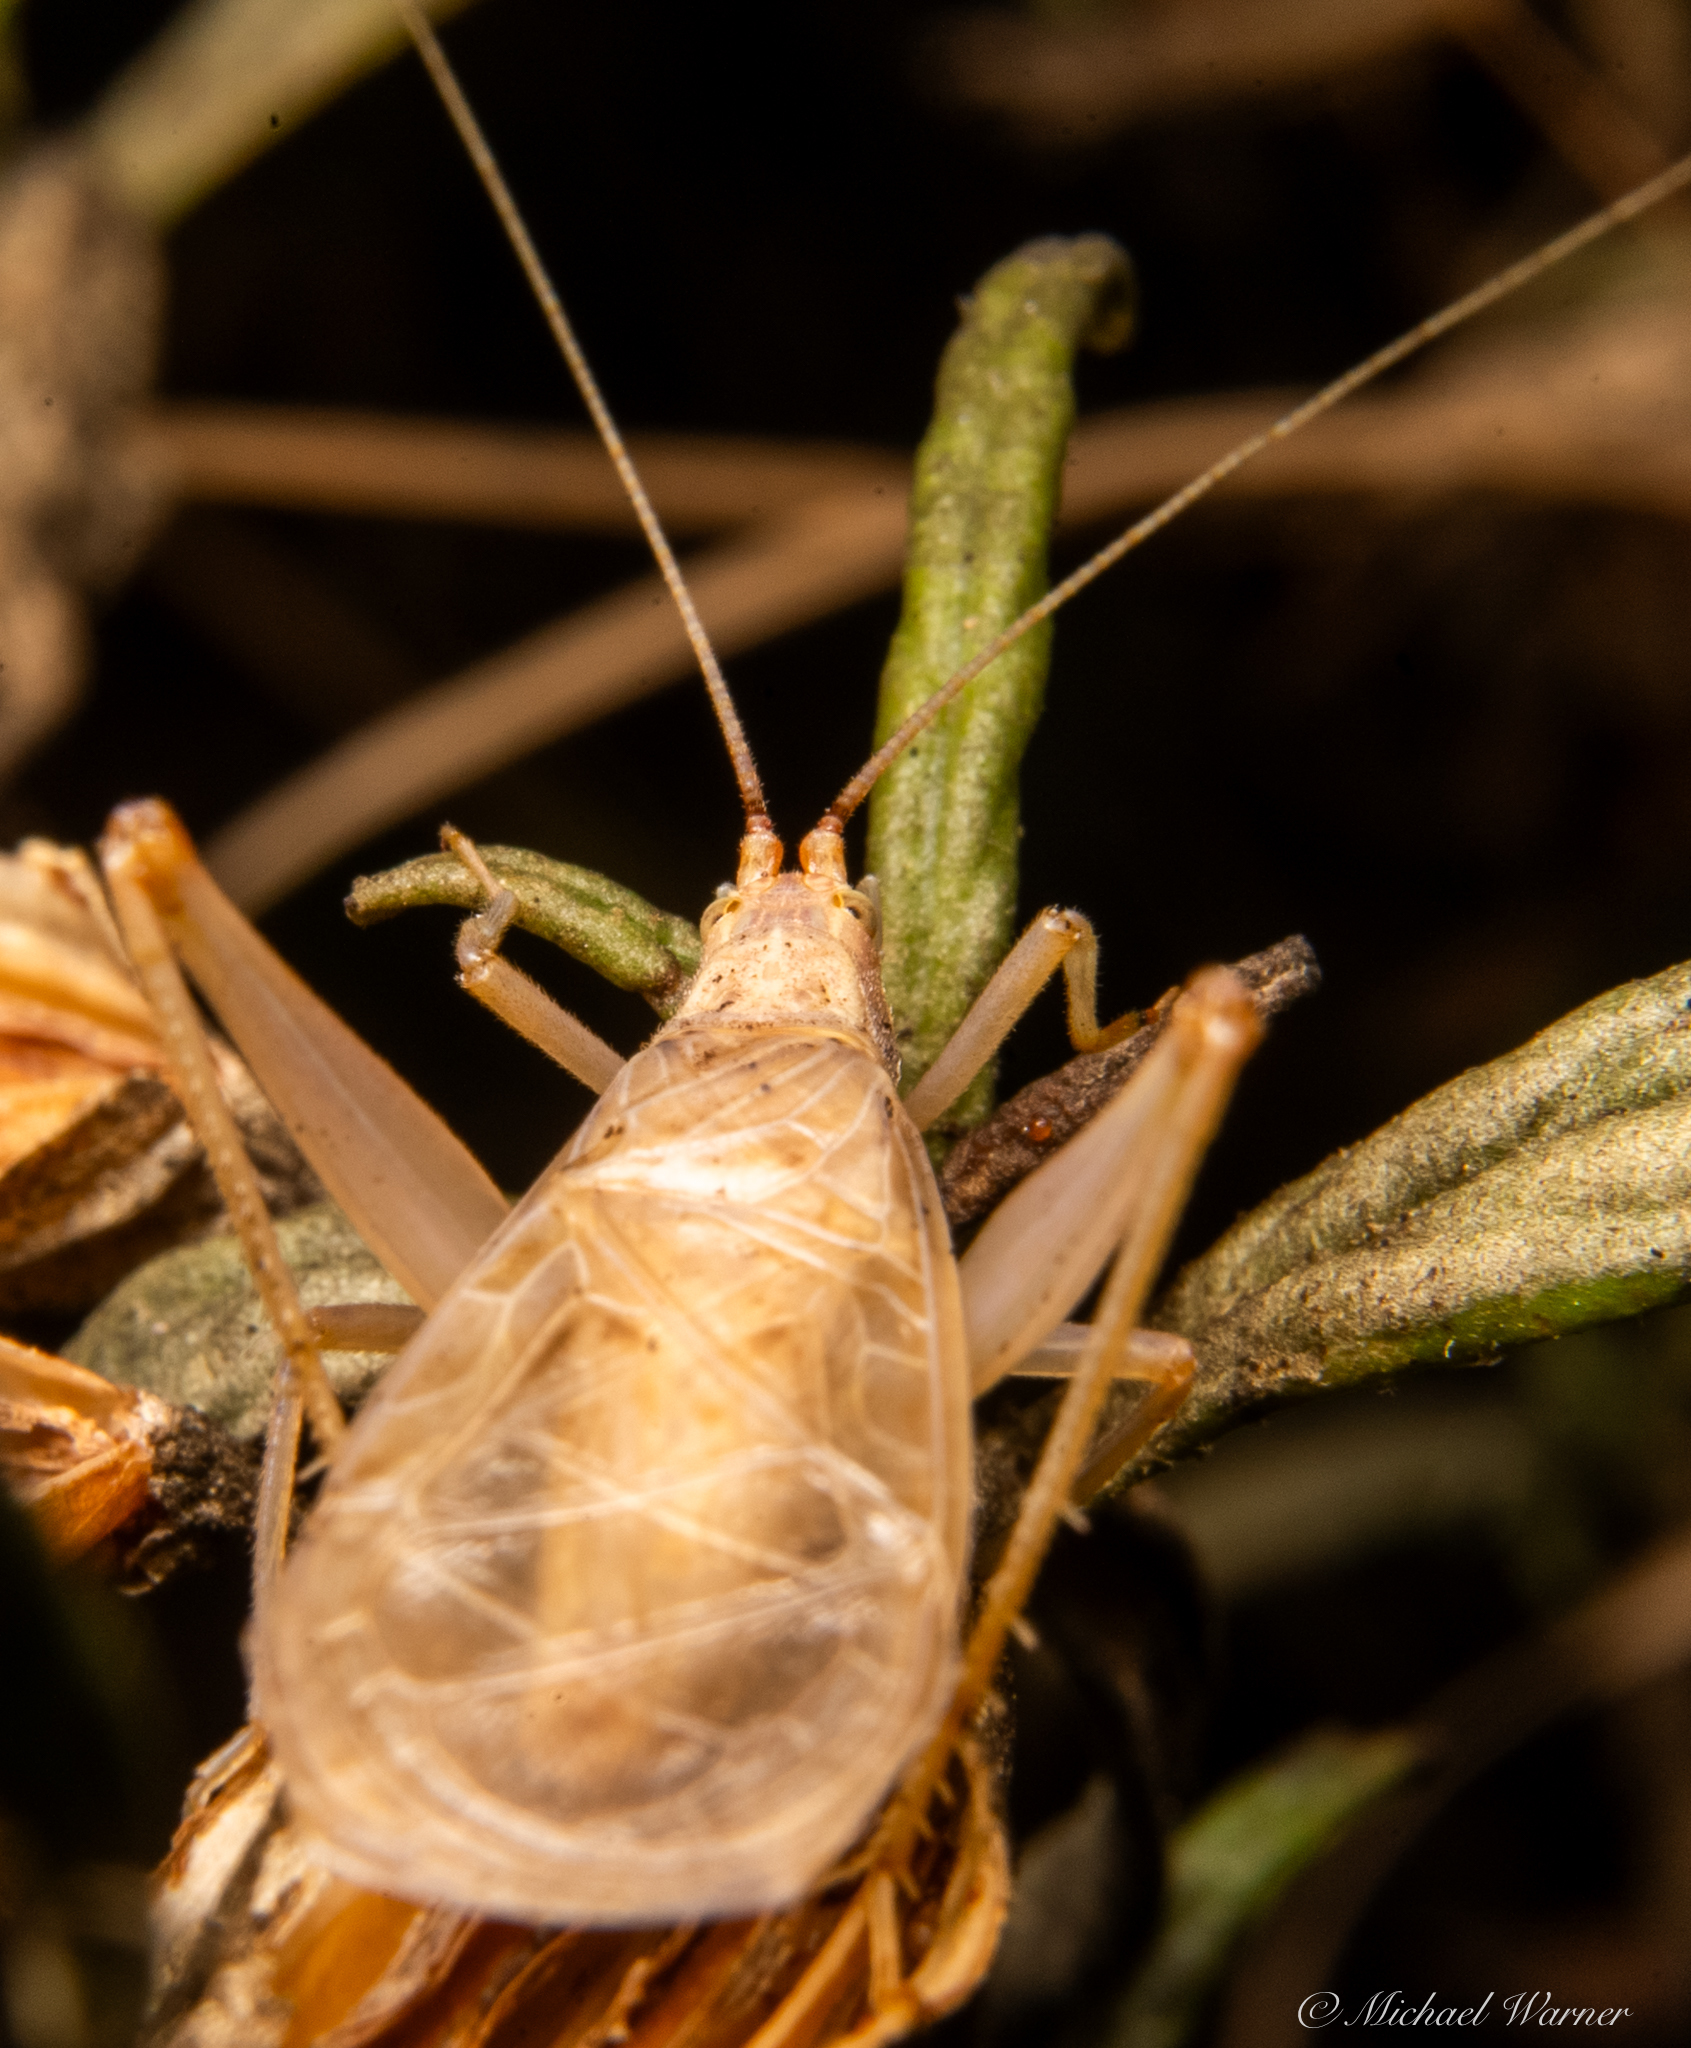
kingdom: Animalia
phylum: Arthropoda
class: Insecta
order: Orthoptera
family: Gryllidae
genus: Oecanthus
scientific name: Oecanthus californicus
